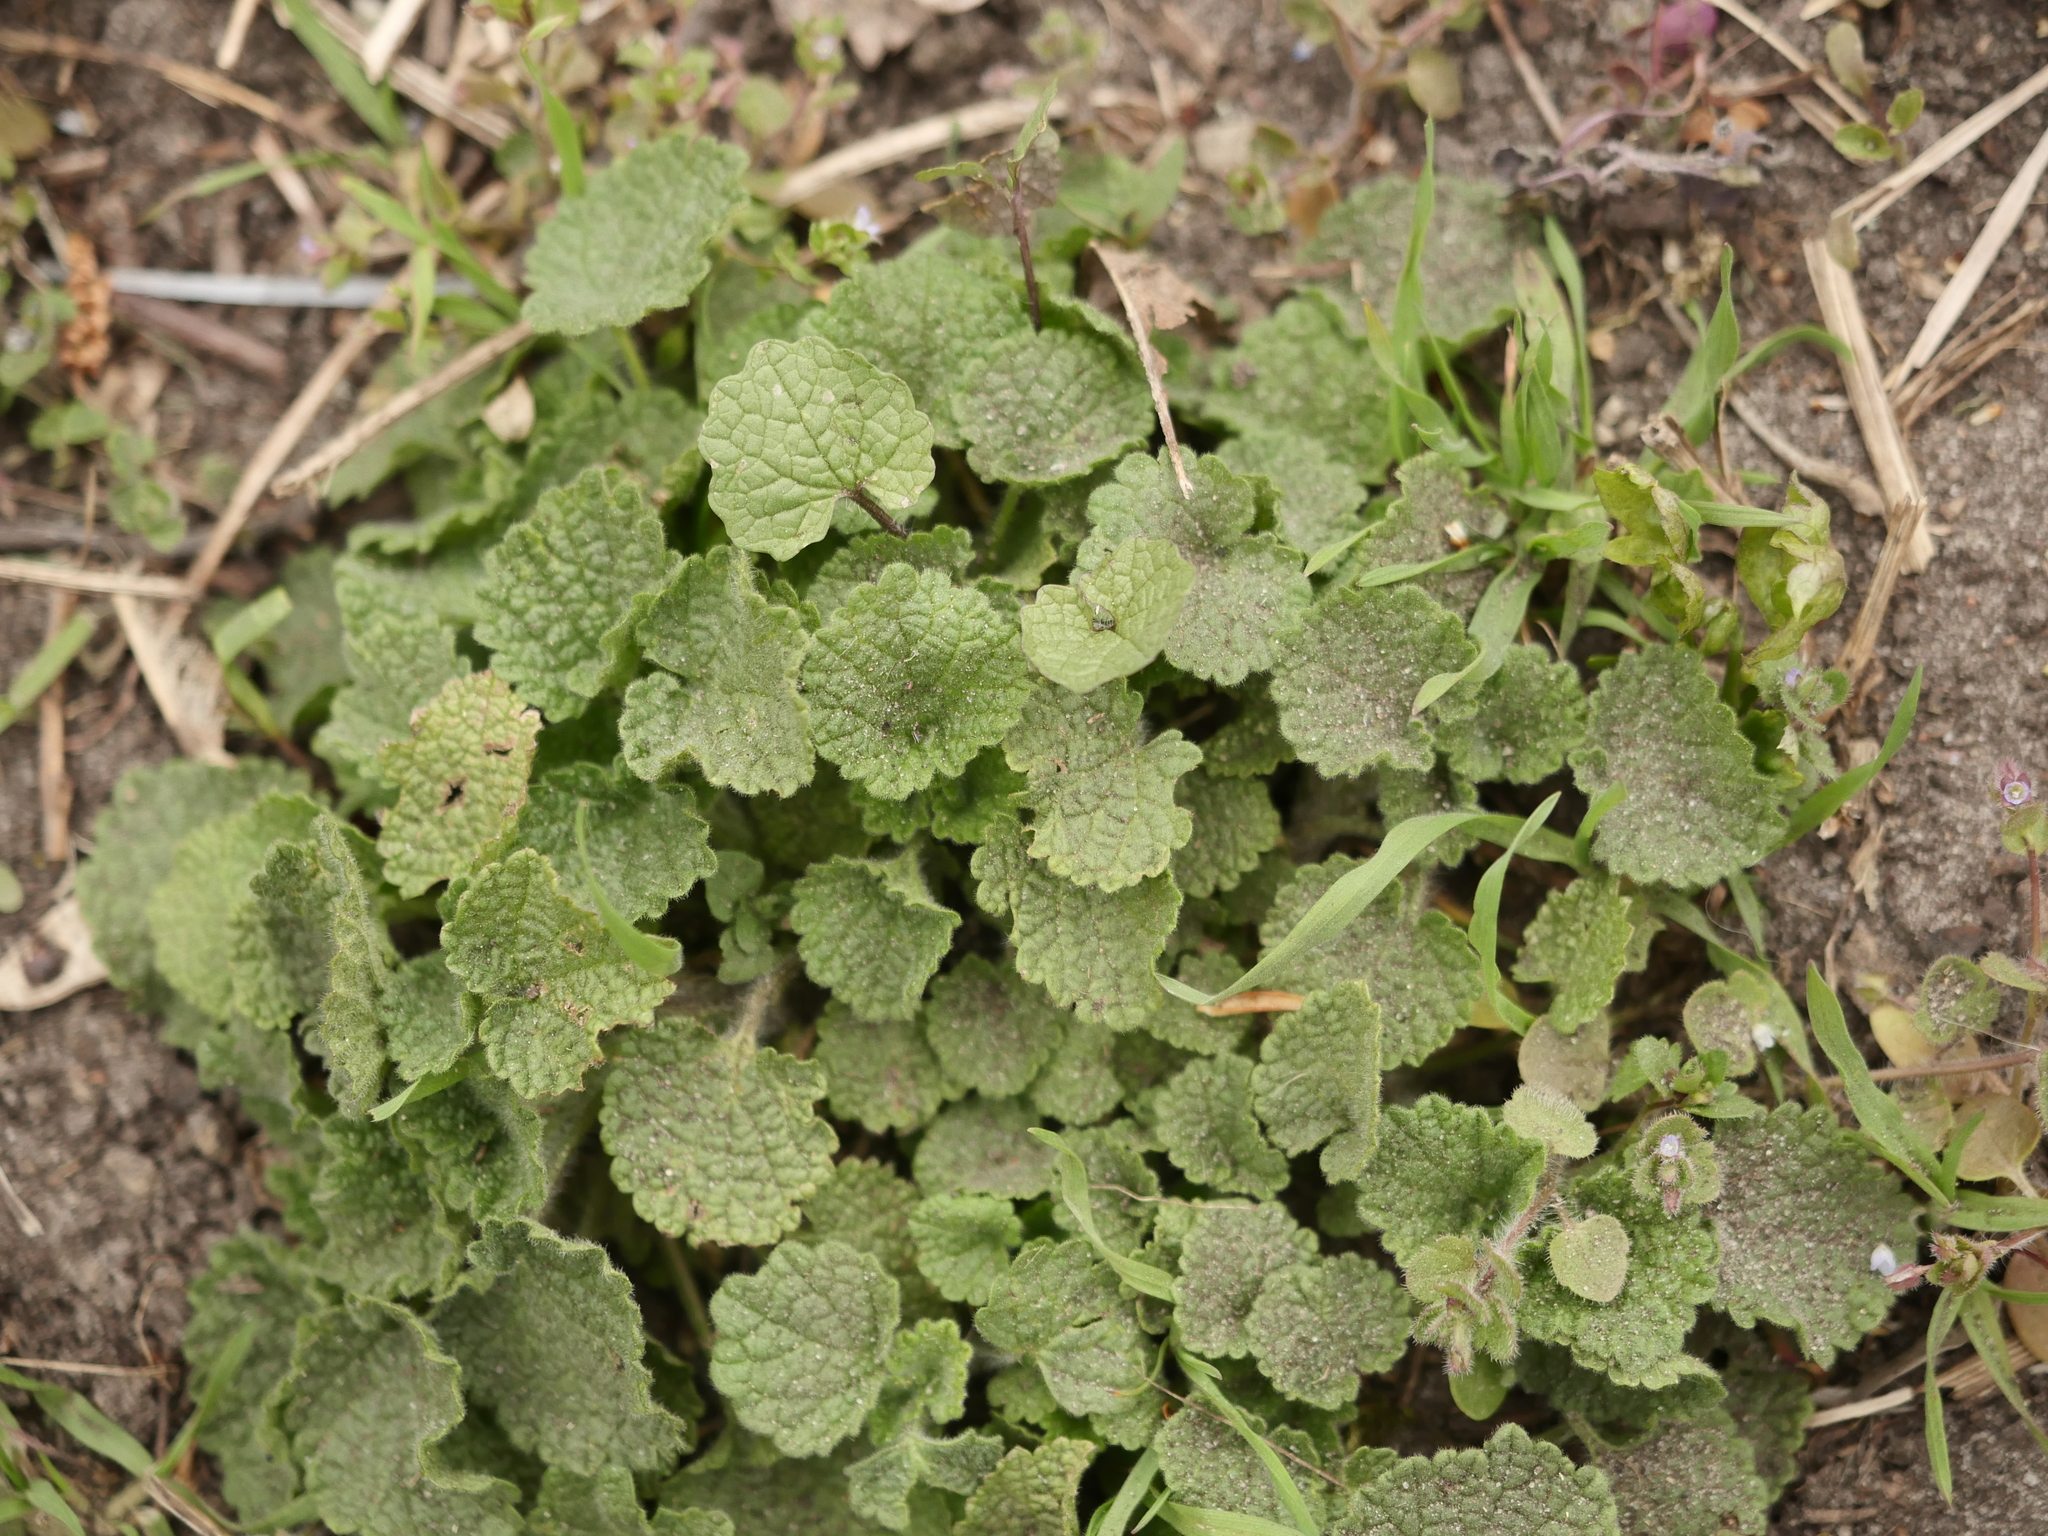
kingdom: Plantae
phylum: Tracheophyta
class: Magnoliopsida
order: Lamiales
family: Lamiaceae
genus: Ballota
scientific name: Ballota nigra
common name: Black horehound
